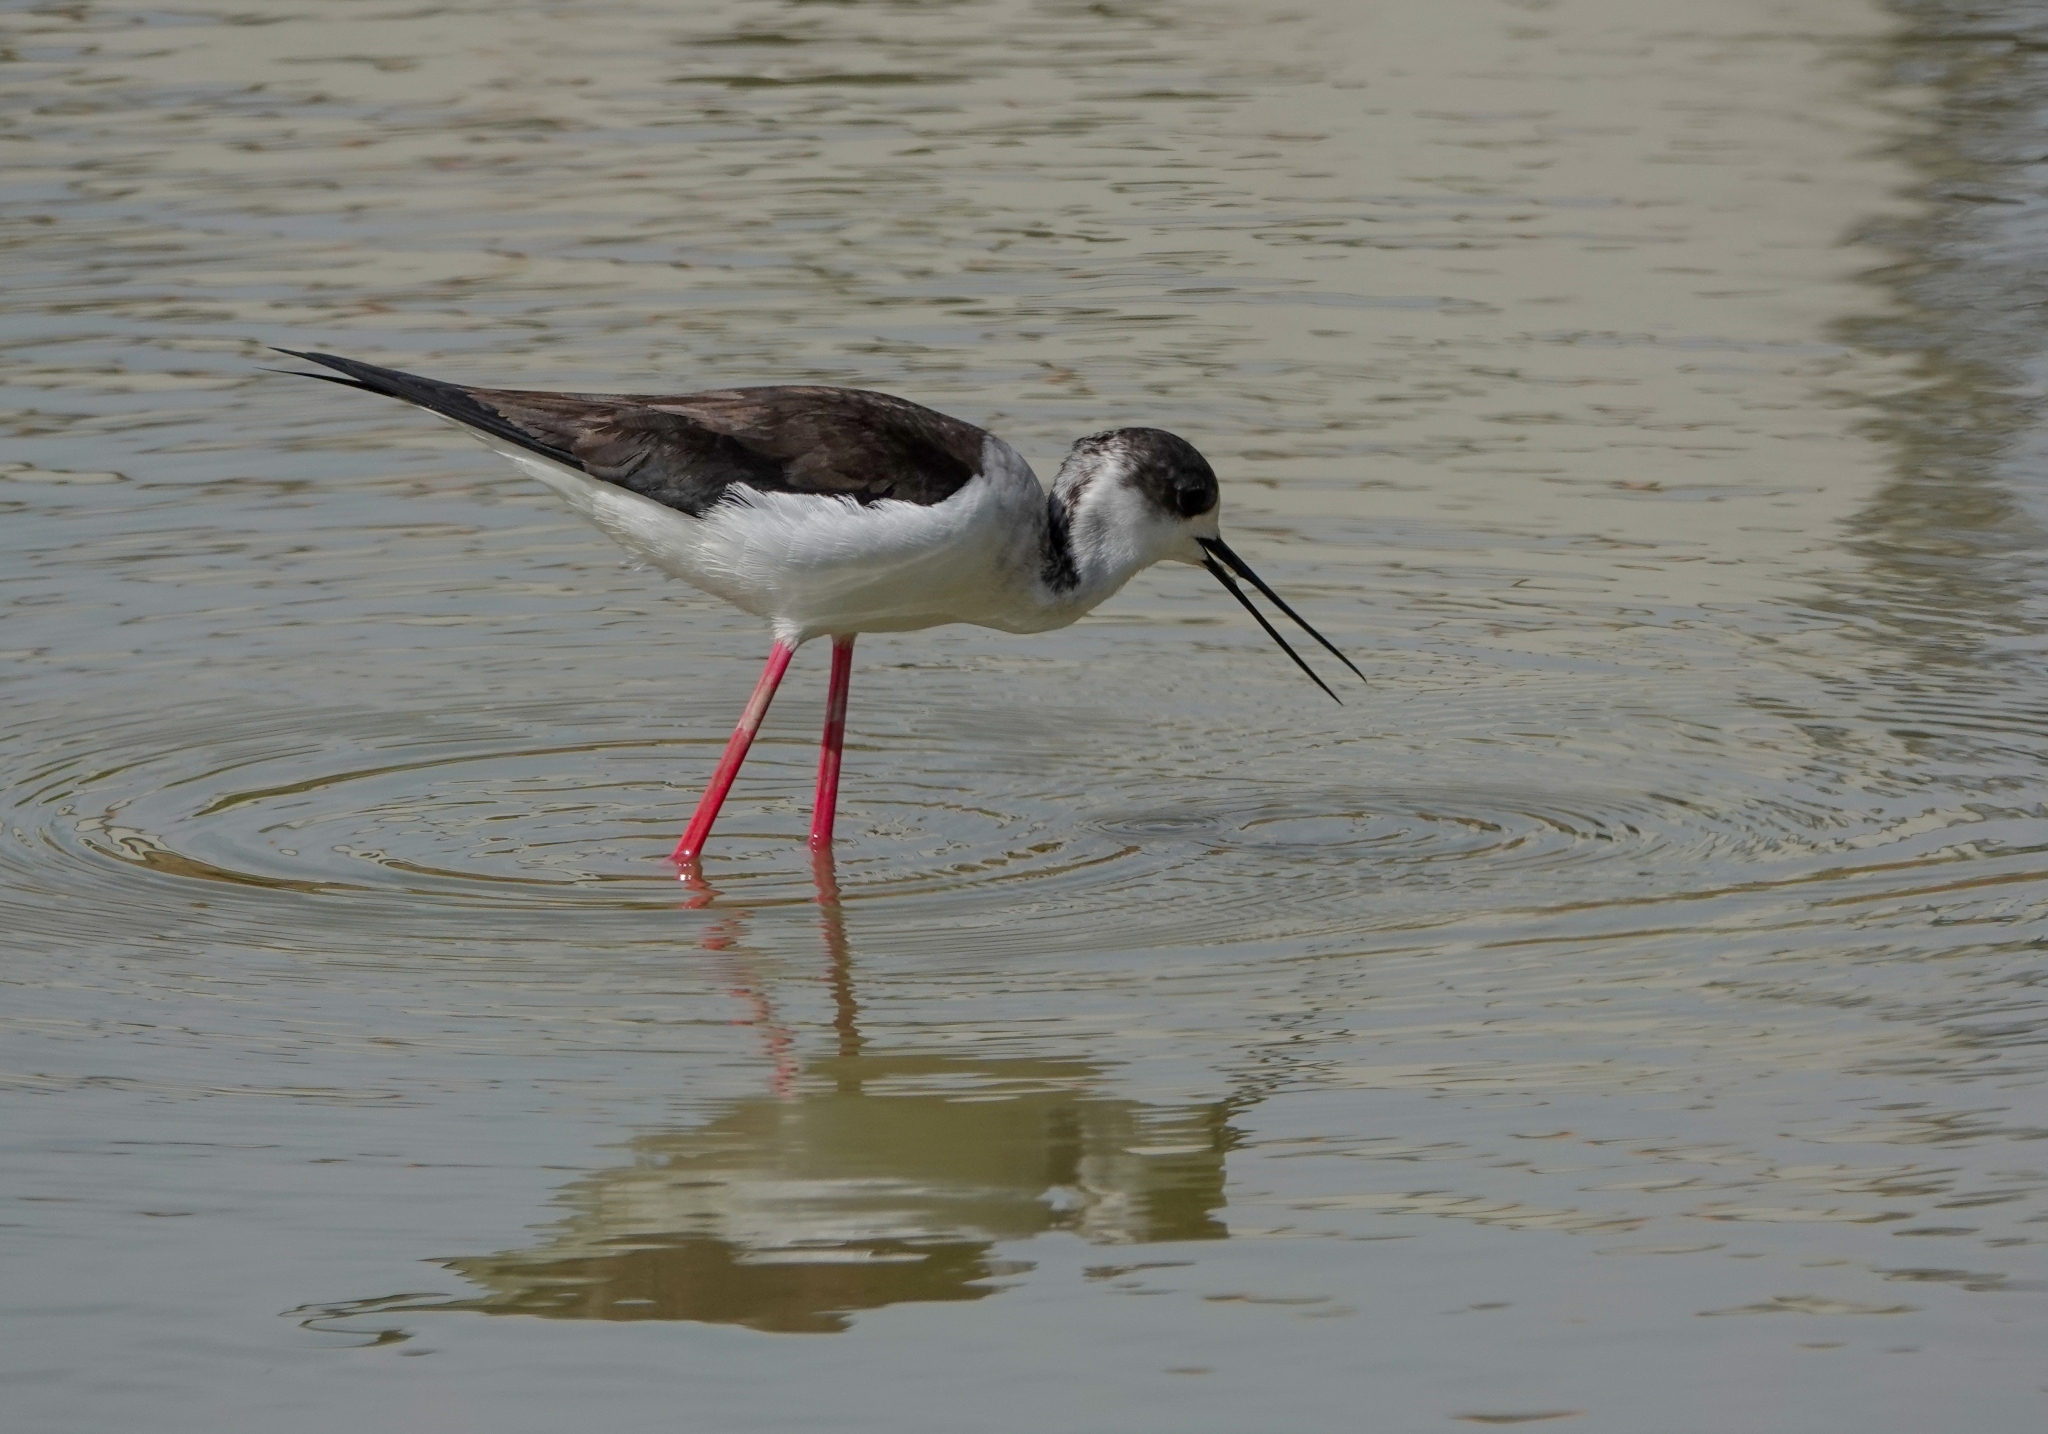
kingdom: Animalia
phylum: Chordata
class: Aves
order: Charadriiformes
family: Recurvirostridae
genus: Himantopus
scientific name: Himantopus himantopus
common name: Black-winged stilt
